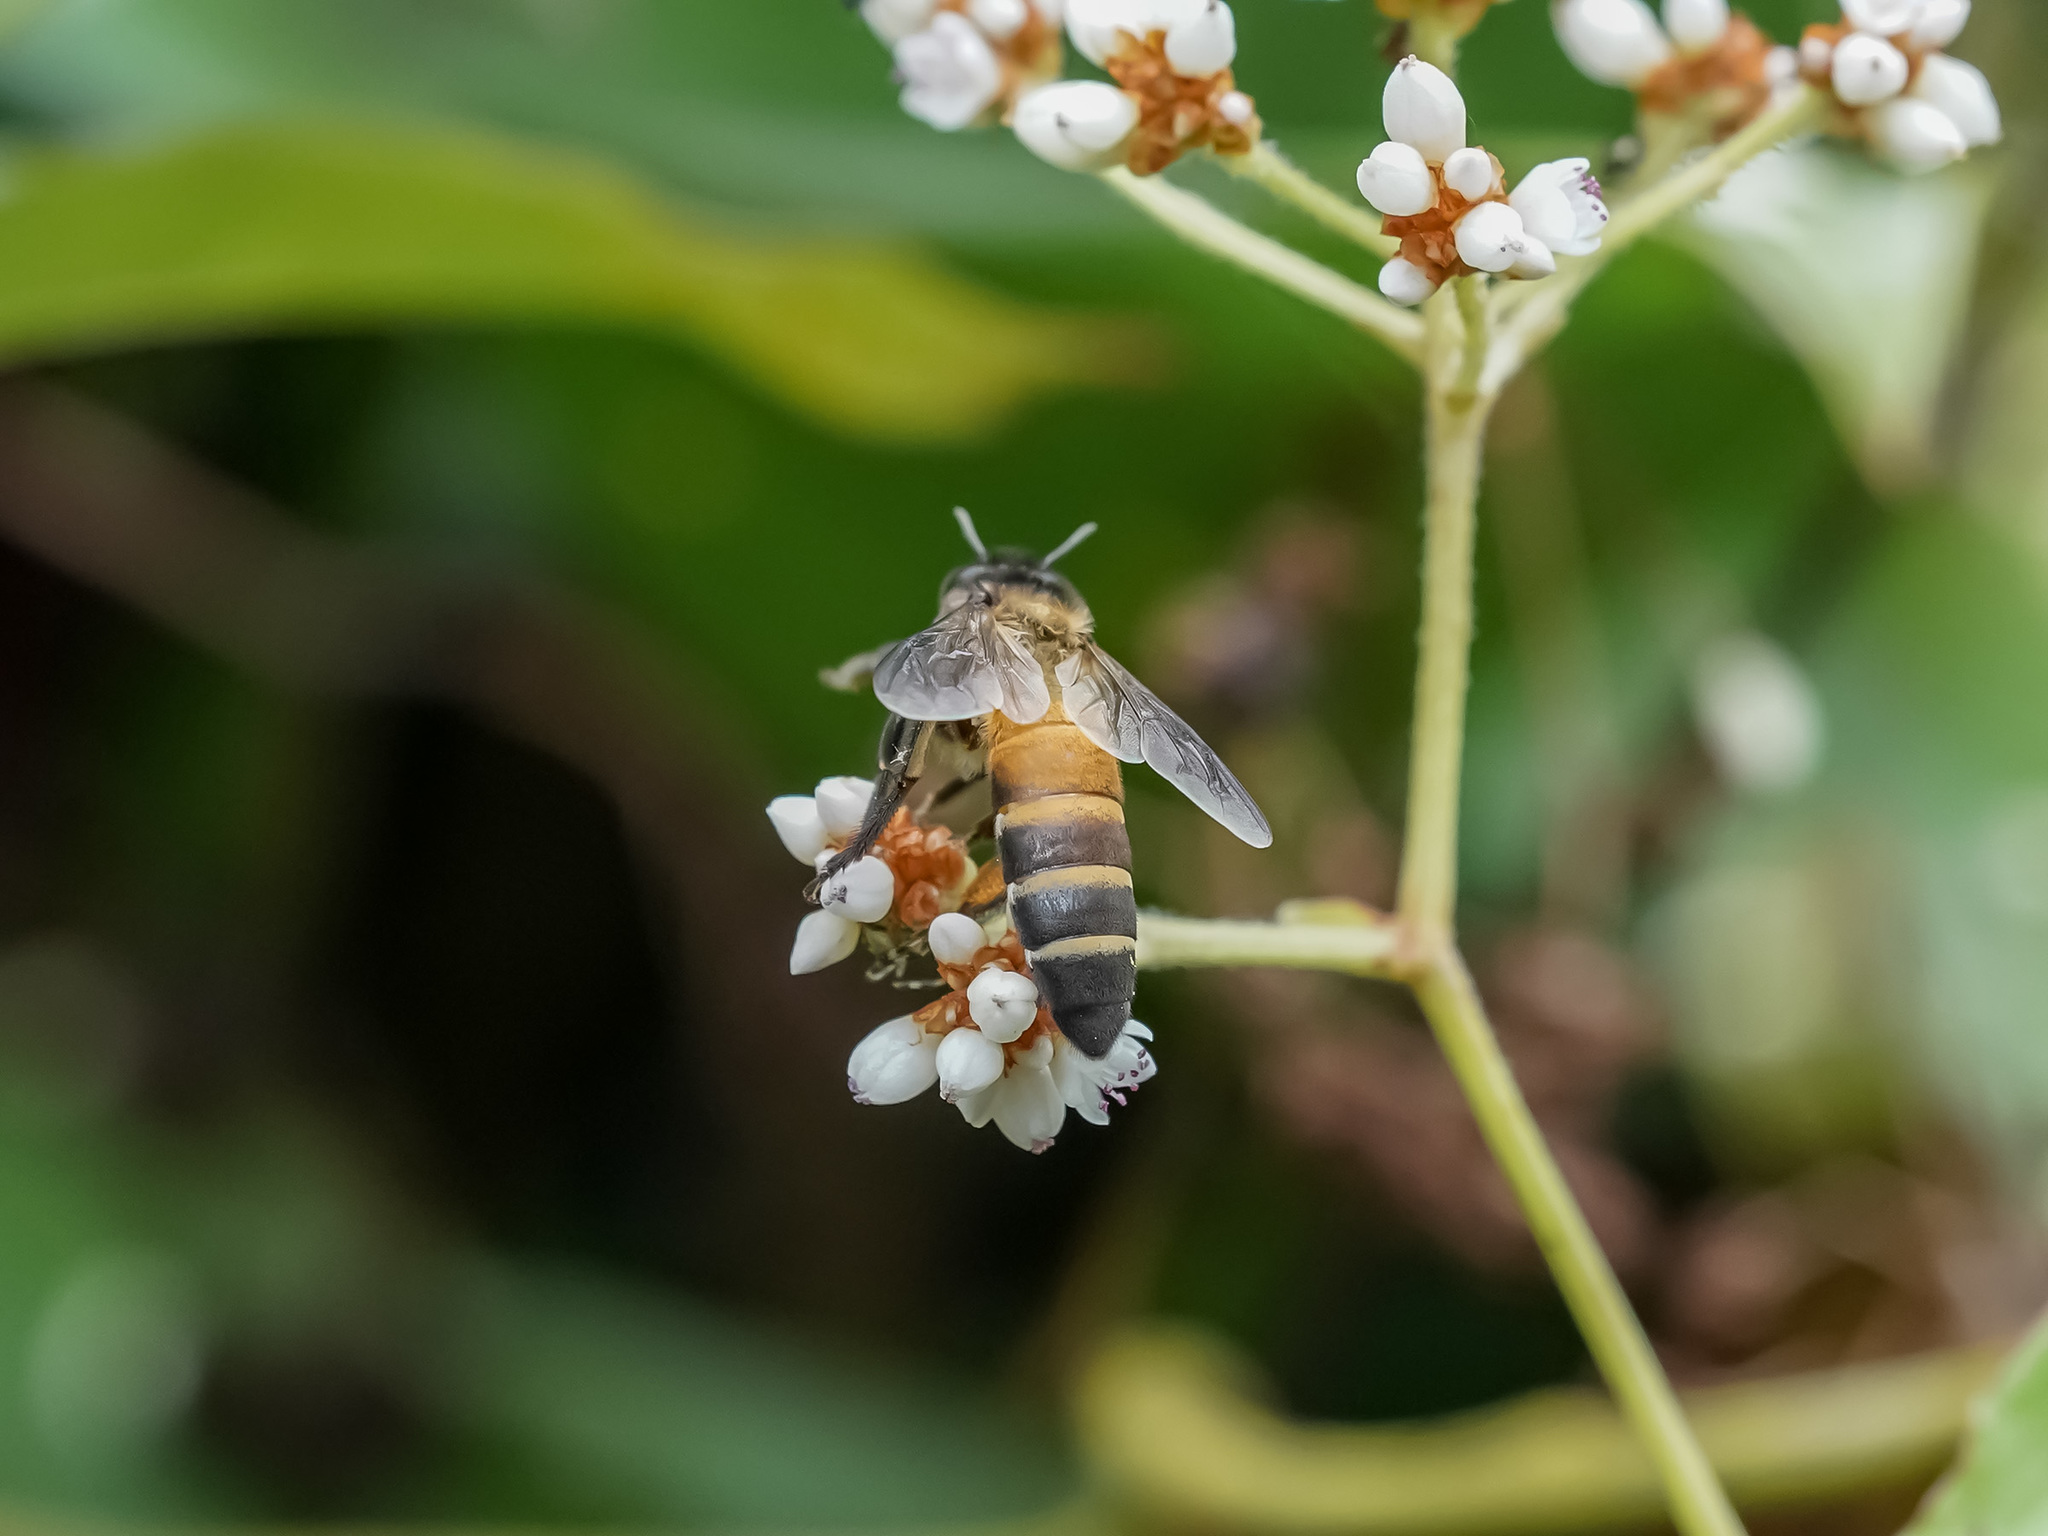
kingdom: Animalia
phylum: Arthropoda
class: Insecta
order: Hymenoptera
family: Apidae
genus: Apis
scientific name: Apis dorsata
